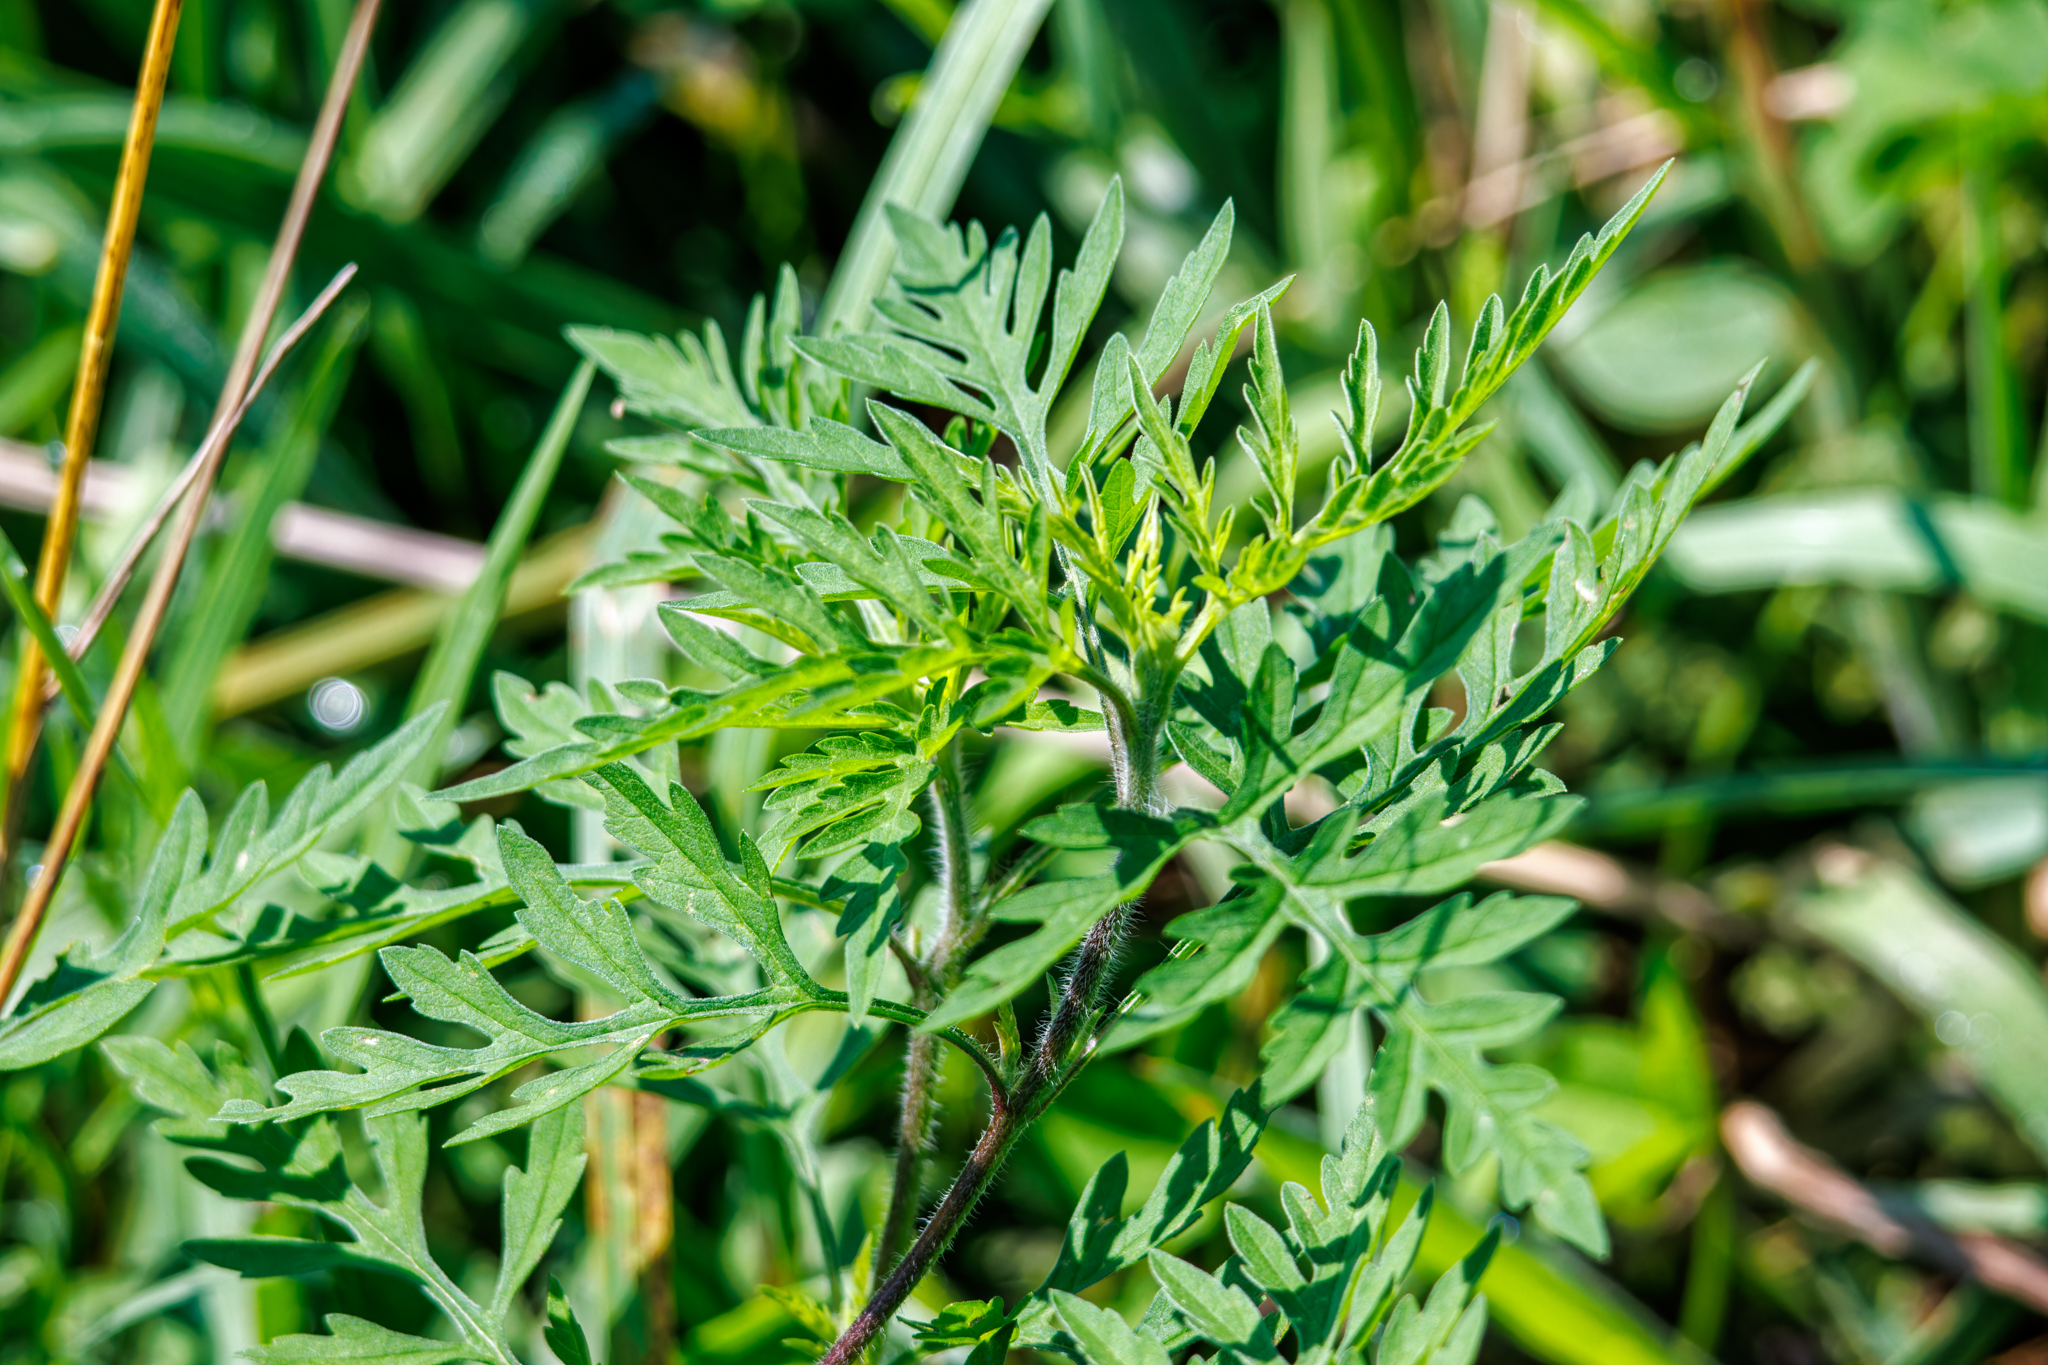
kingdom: Plantae
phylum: Tracheophyta
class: Magnoliopsida
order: Asterales
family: Asteraceae
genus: Ambrosia
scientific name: Ambrosia artemisiifolia
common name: Annual ragweed
